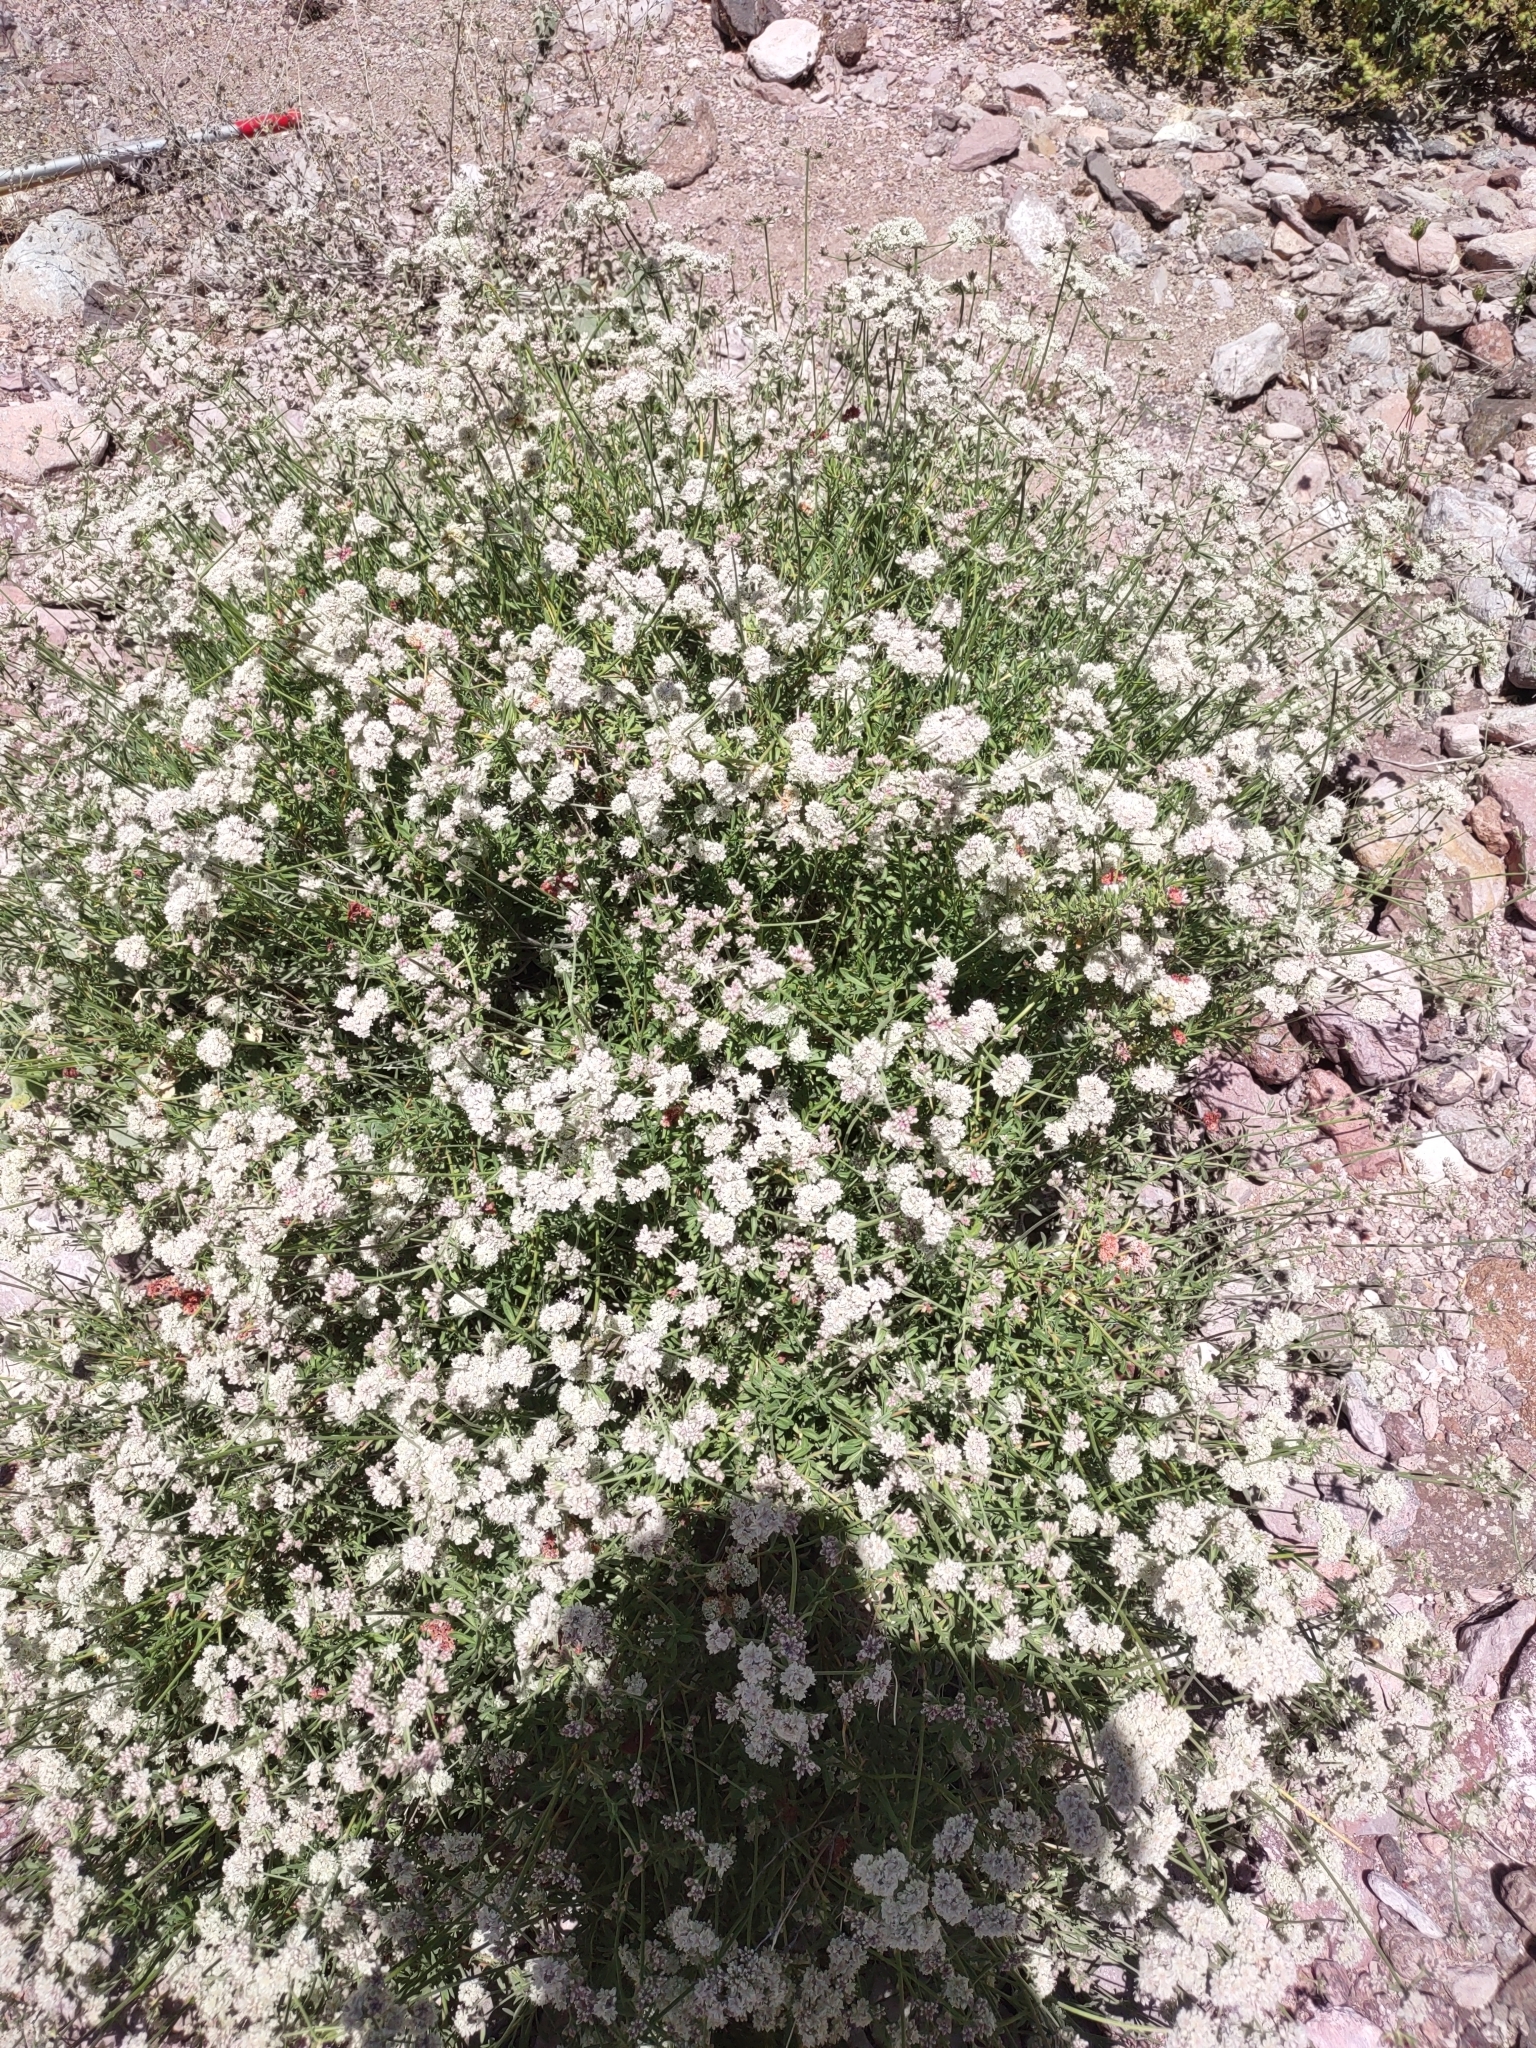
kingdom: Plantae
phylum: Tracheophyta
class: Magnoliopsida
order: Caryophyllales
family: Polygonaceae
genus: Eriogonum
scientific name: Eriogonum fasciculatum
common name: California wild buckwheat
